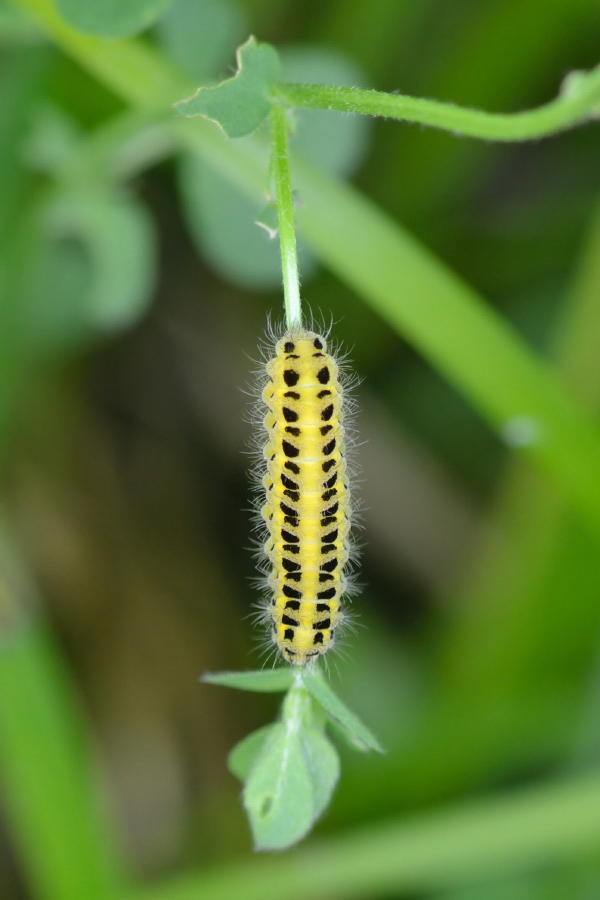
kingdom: Animalia
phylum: Arthropoda
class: Insecta
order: Lepidoptera
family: Zygaenidae
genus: Zygaena
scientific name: Zygaena filipendulae
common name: Six-spot burnet
